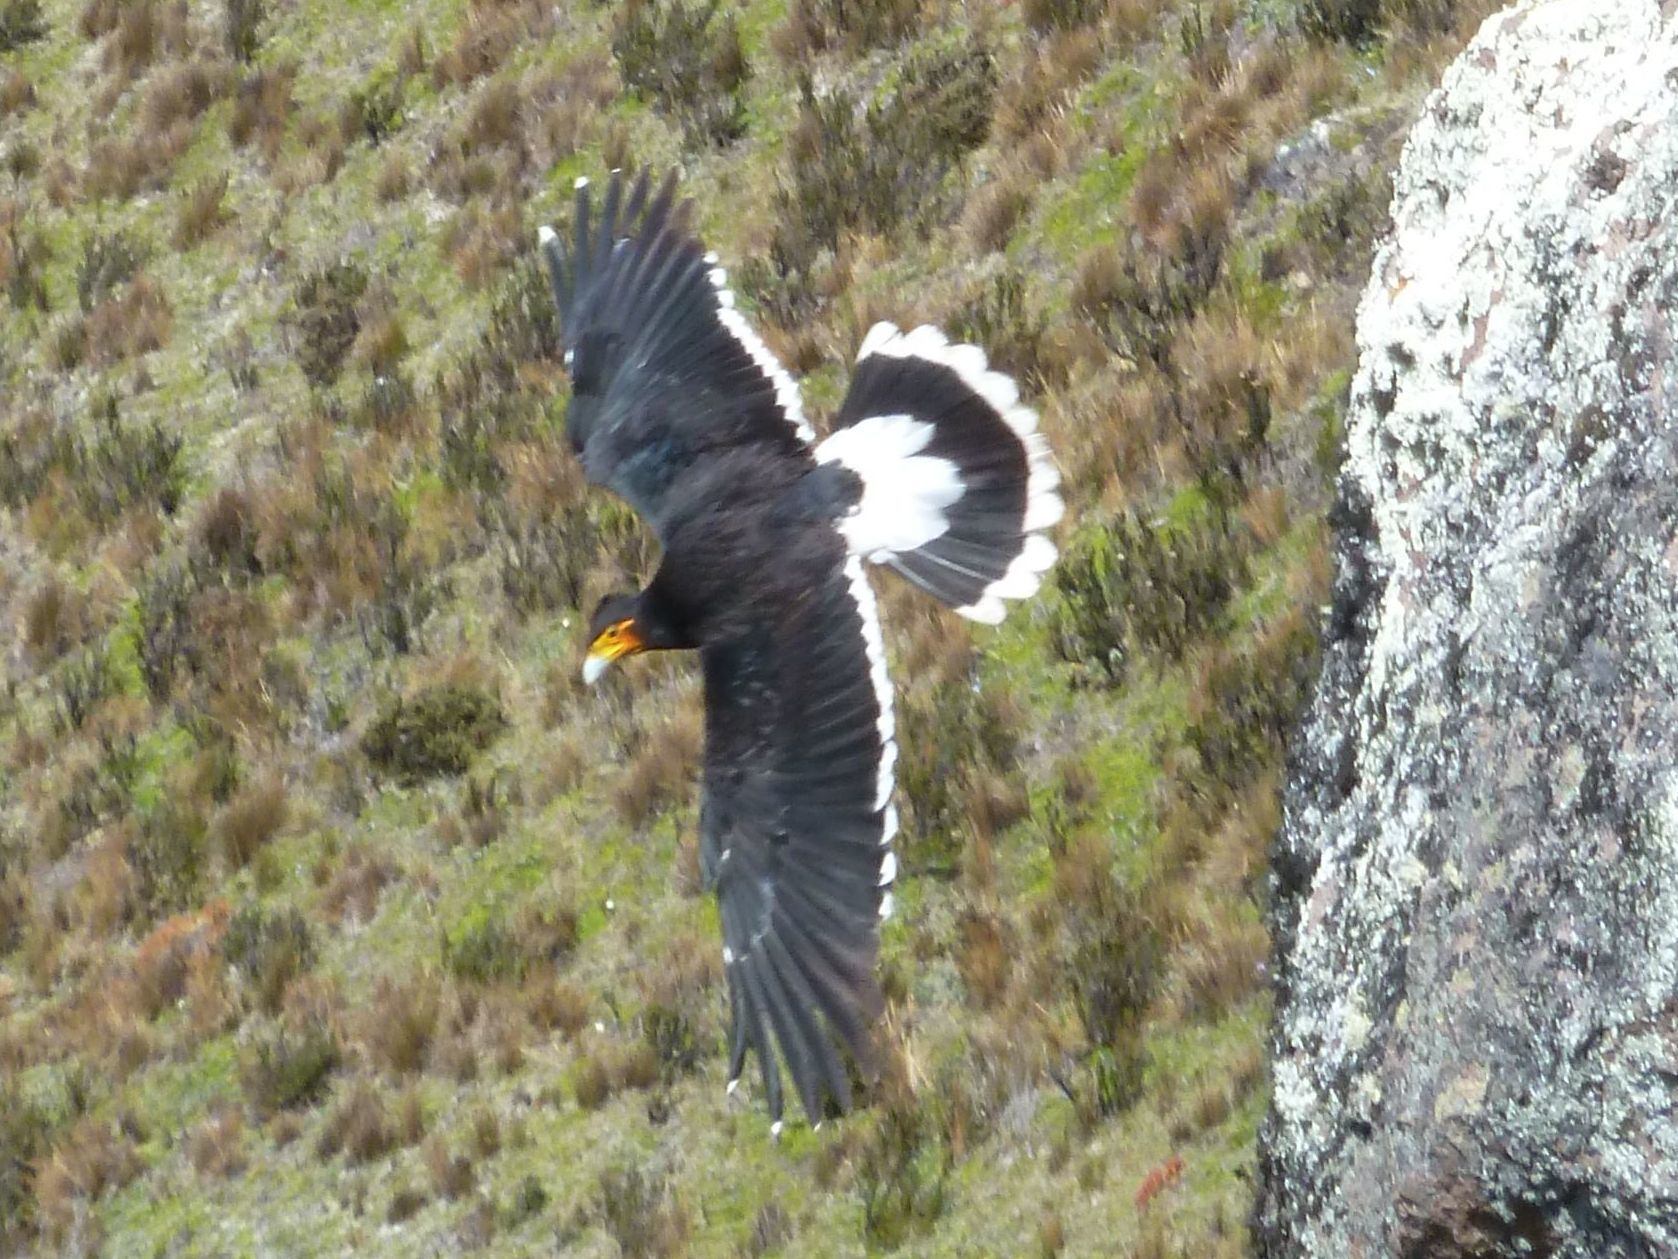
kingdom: Animalia
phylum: Chordata
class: Aves
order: Falconiformes
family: Falconidae
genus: Daptrius
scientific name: Daptrius
